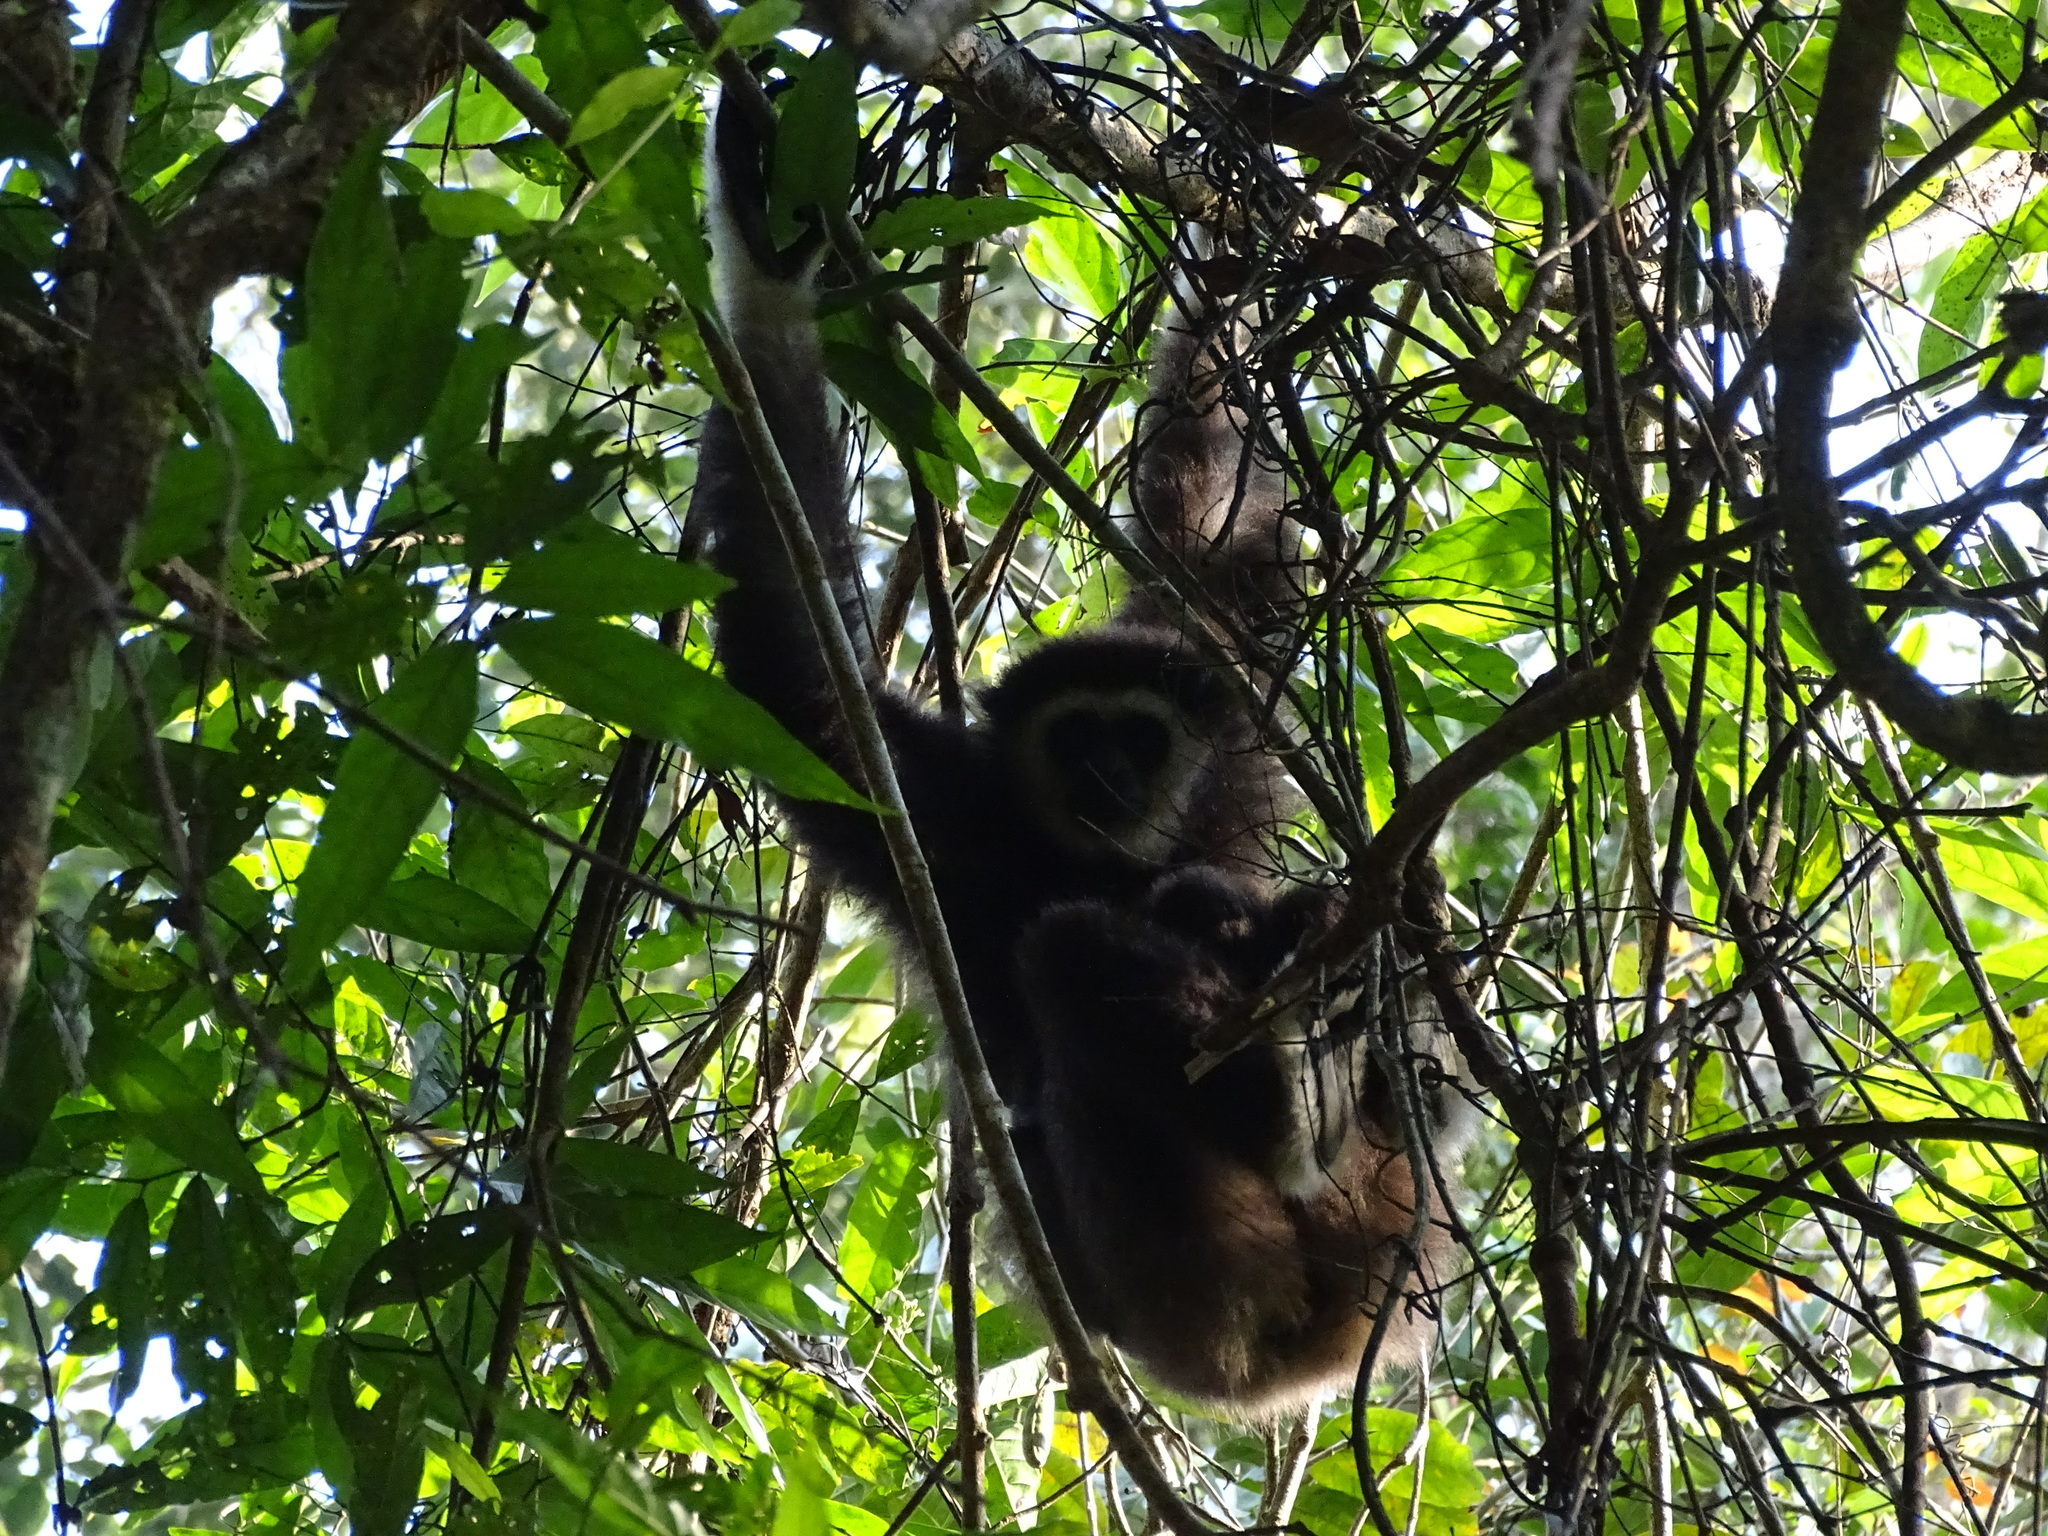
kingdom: Animalia
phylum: Chordata
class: Mammalia
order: Primates
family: Hylobatidae
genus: Hylobates
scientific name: Hylobates lar
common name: Lar gibbon
